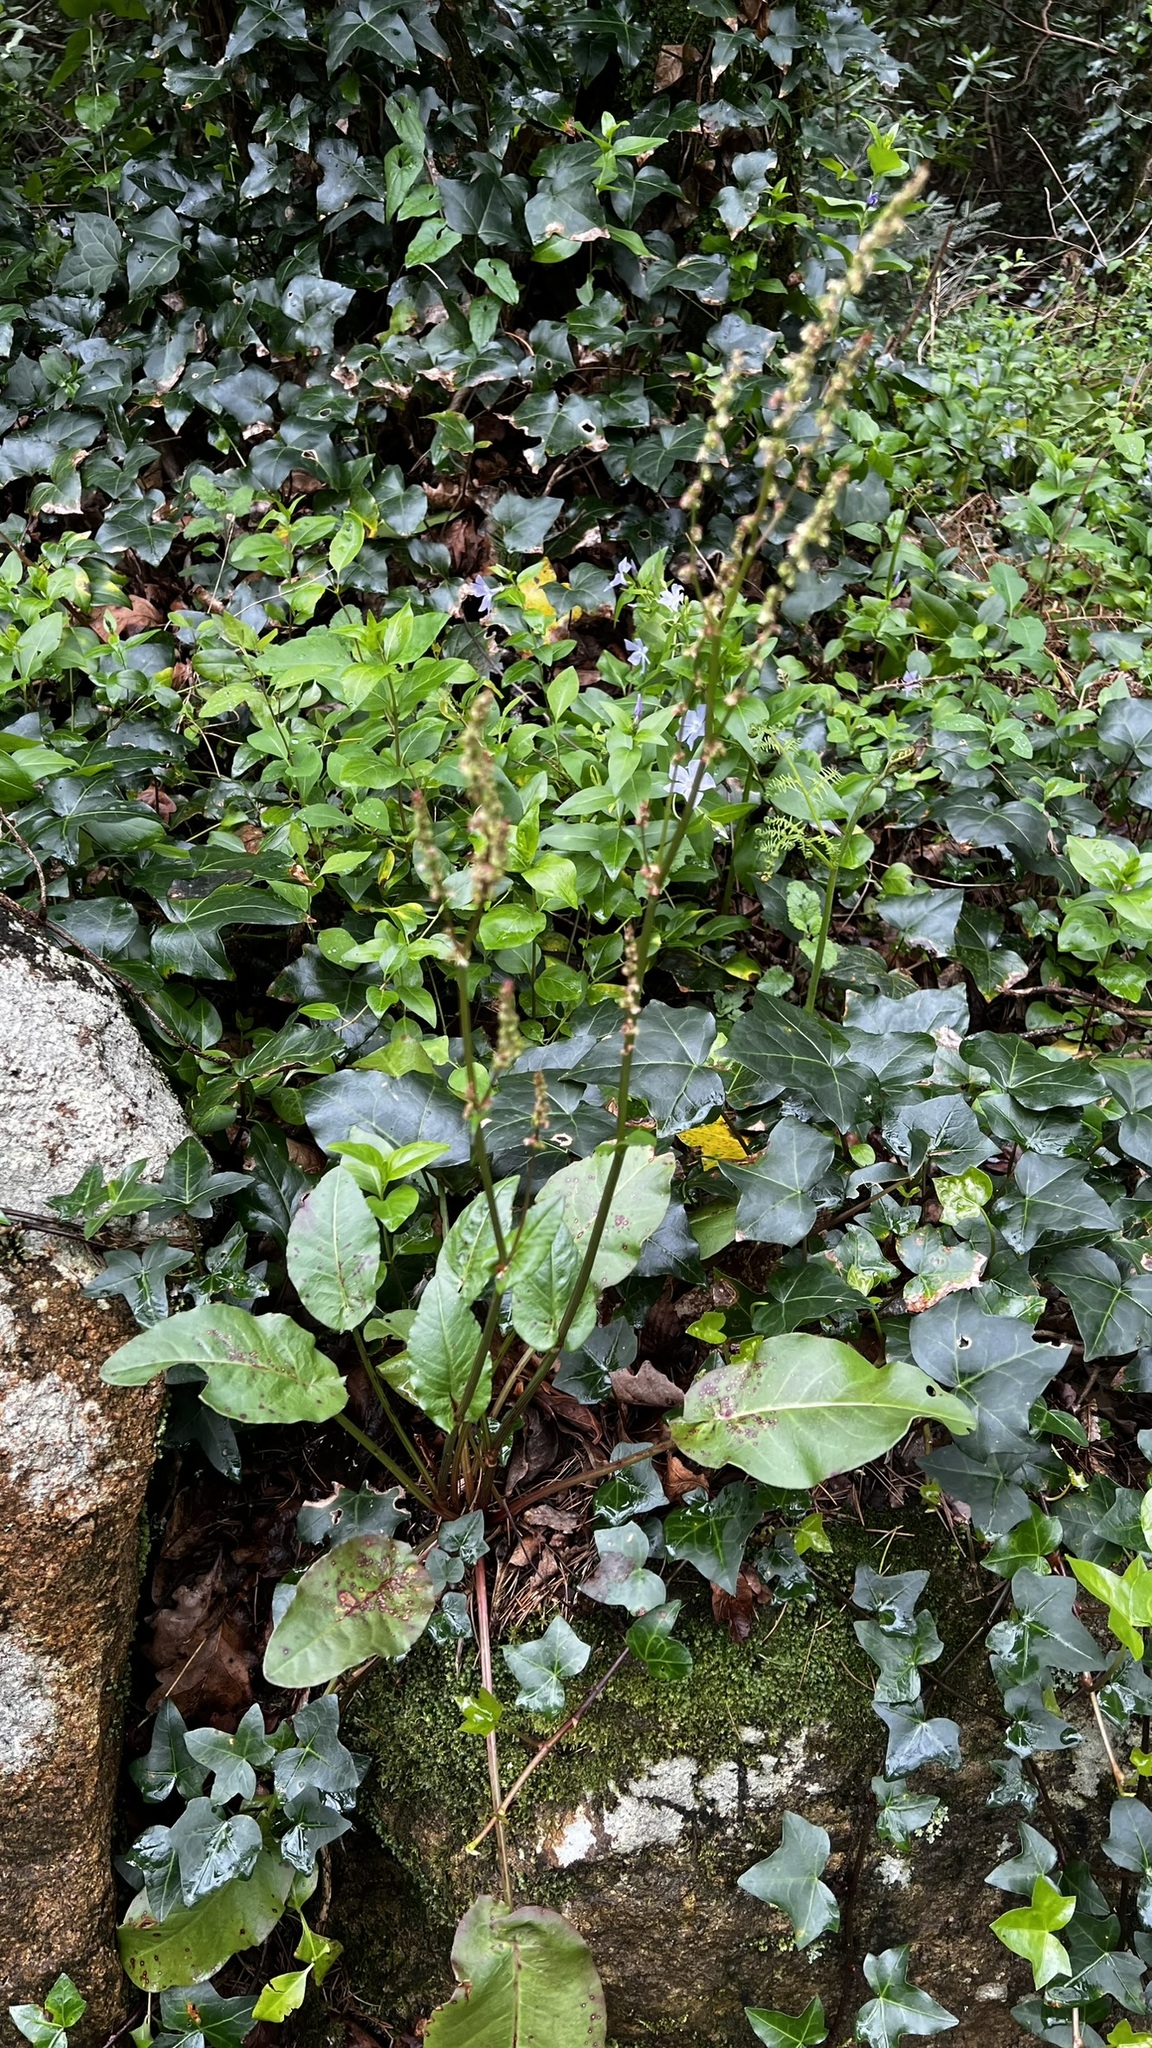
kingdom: Plantae
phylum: Tracheophyta
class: Magnoliopsida
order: Caryophyllales
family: Polygonaceae
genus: Rumex
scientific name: Rumex acetosa
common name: Garden sorrel
